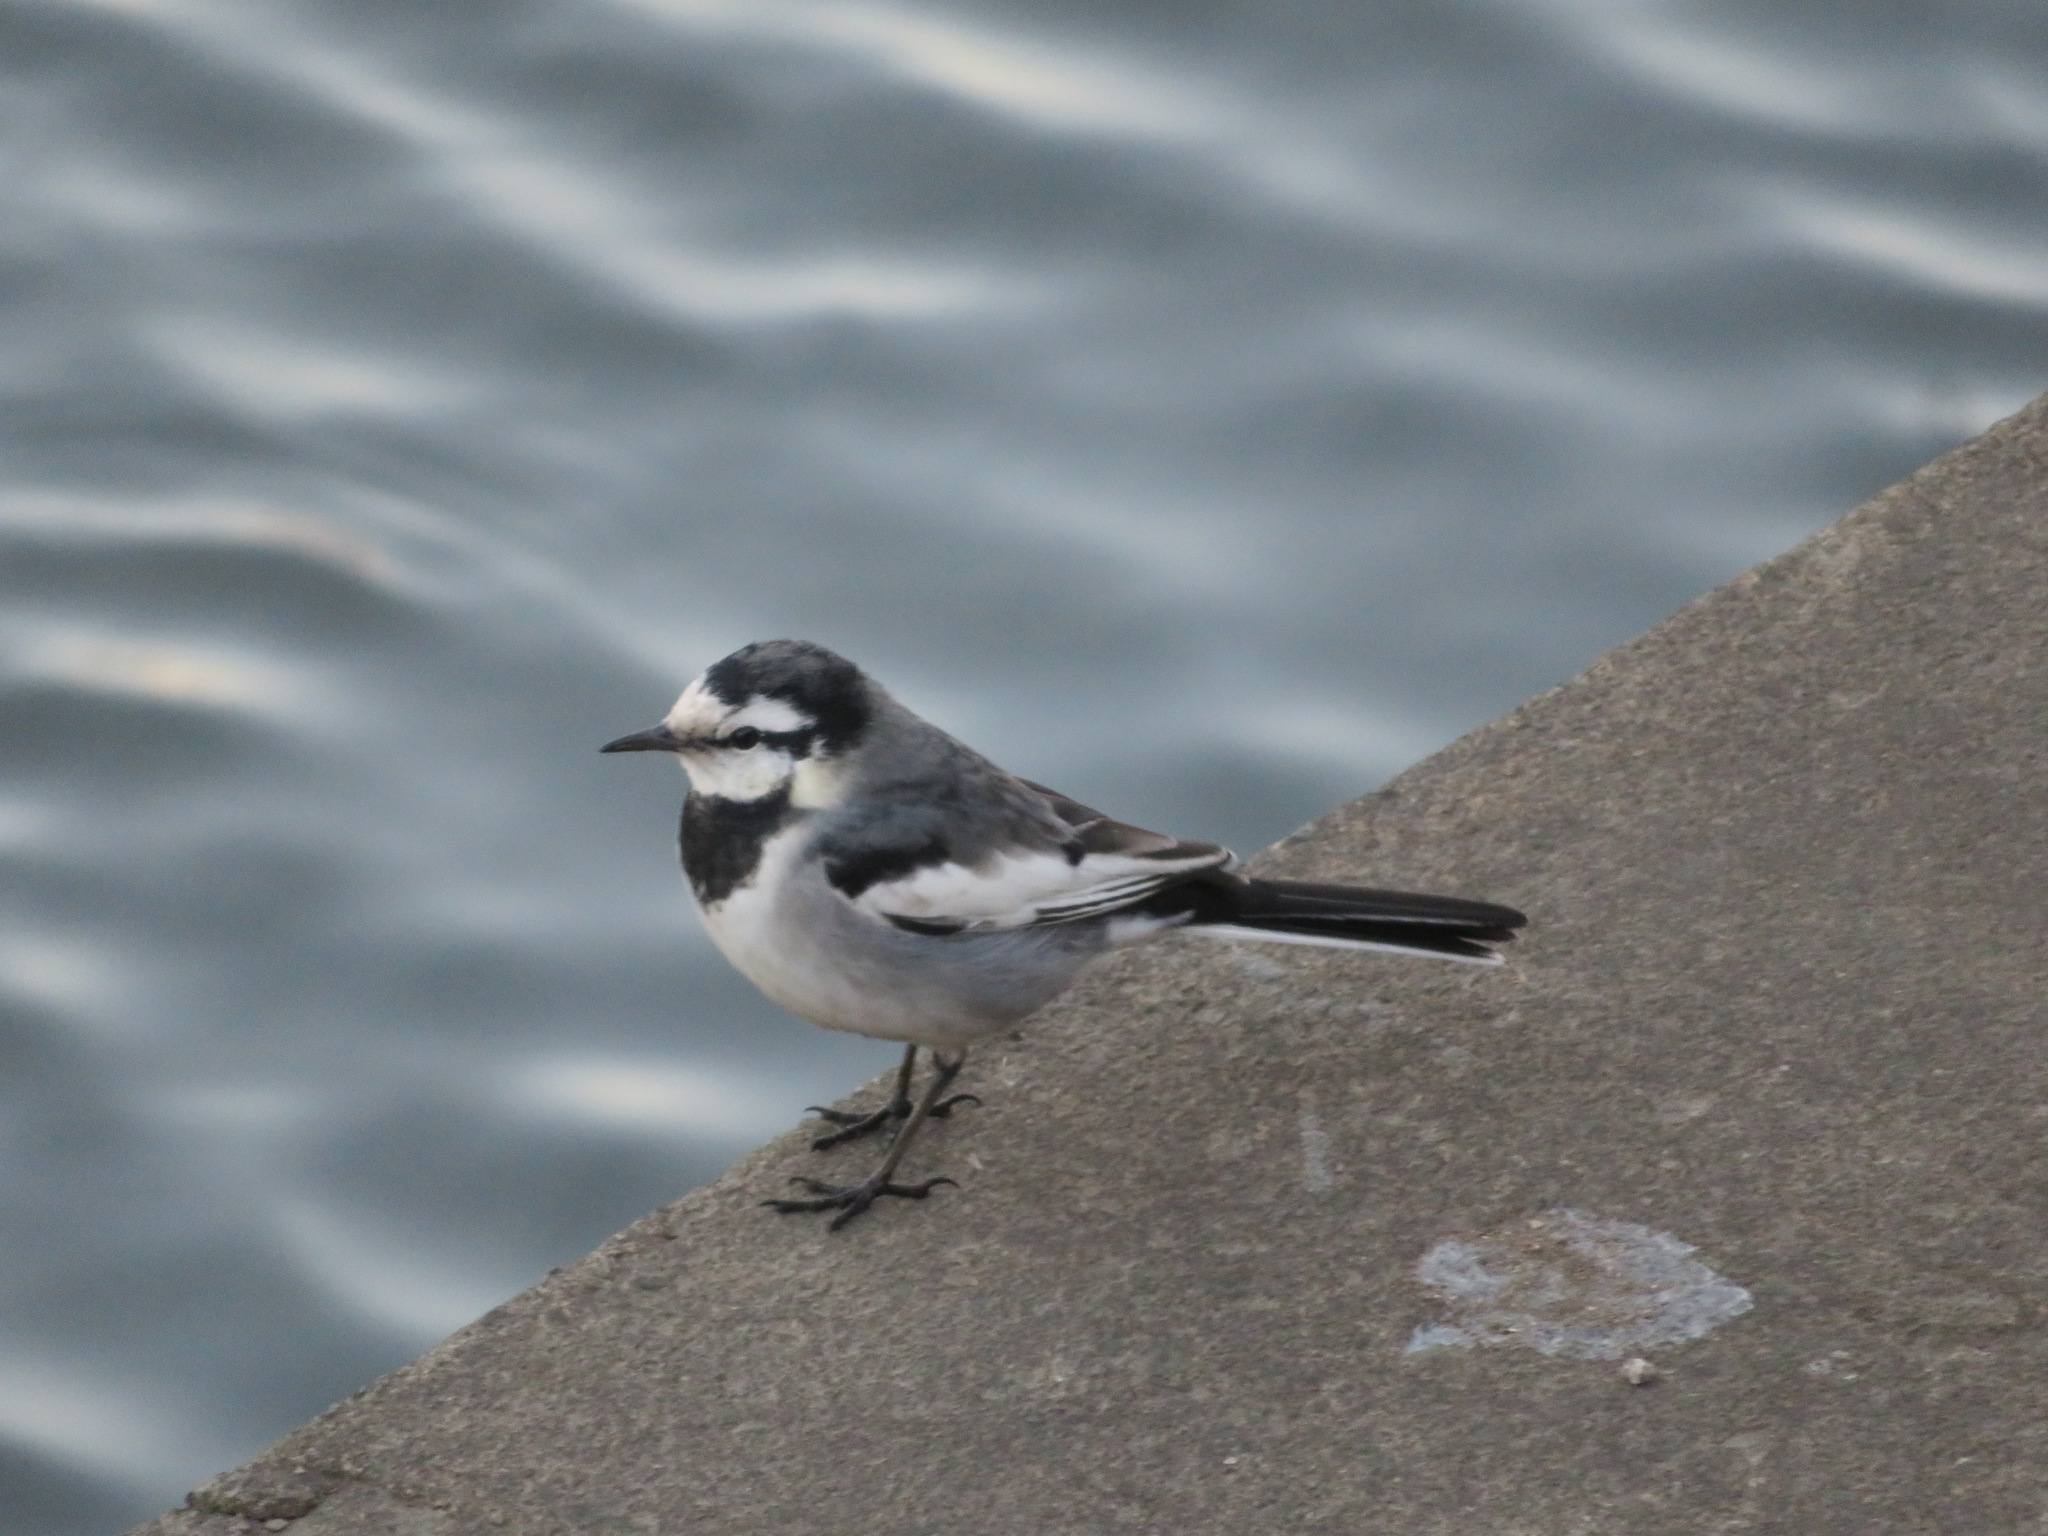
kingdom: Animalia
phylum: Chordata
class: Aves
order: Passeriformes
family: Motacillidae
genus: Motacilla
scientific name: Motacilla alba
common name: White wagtail
